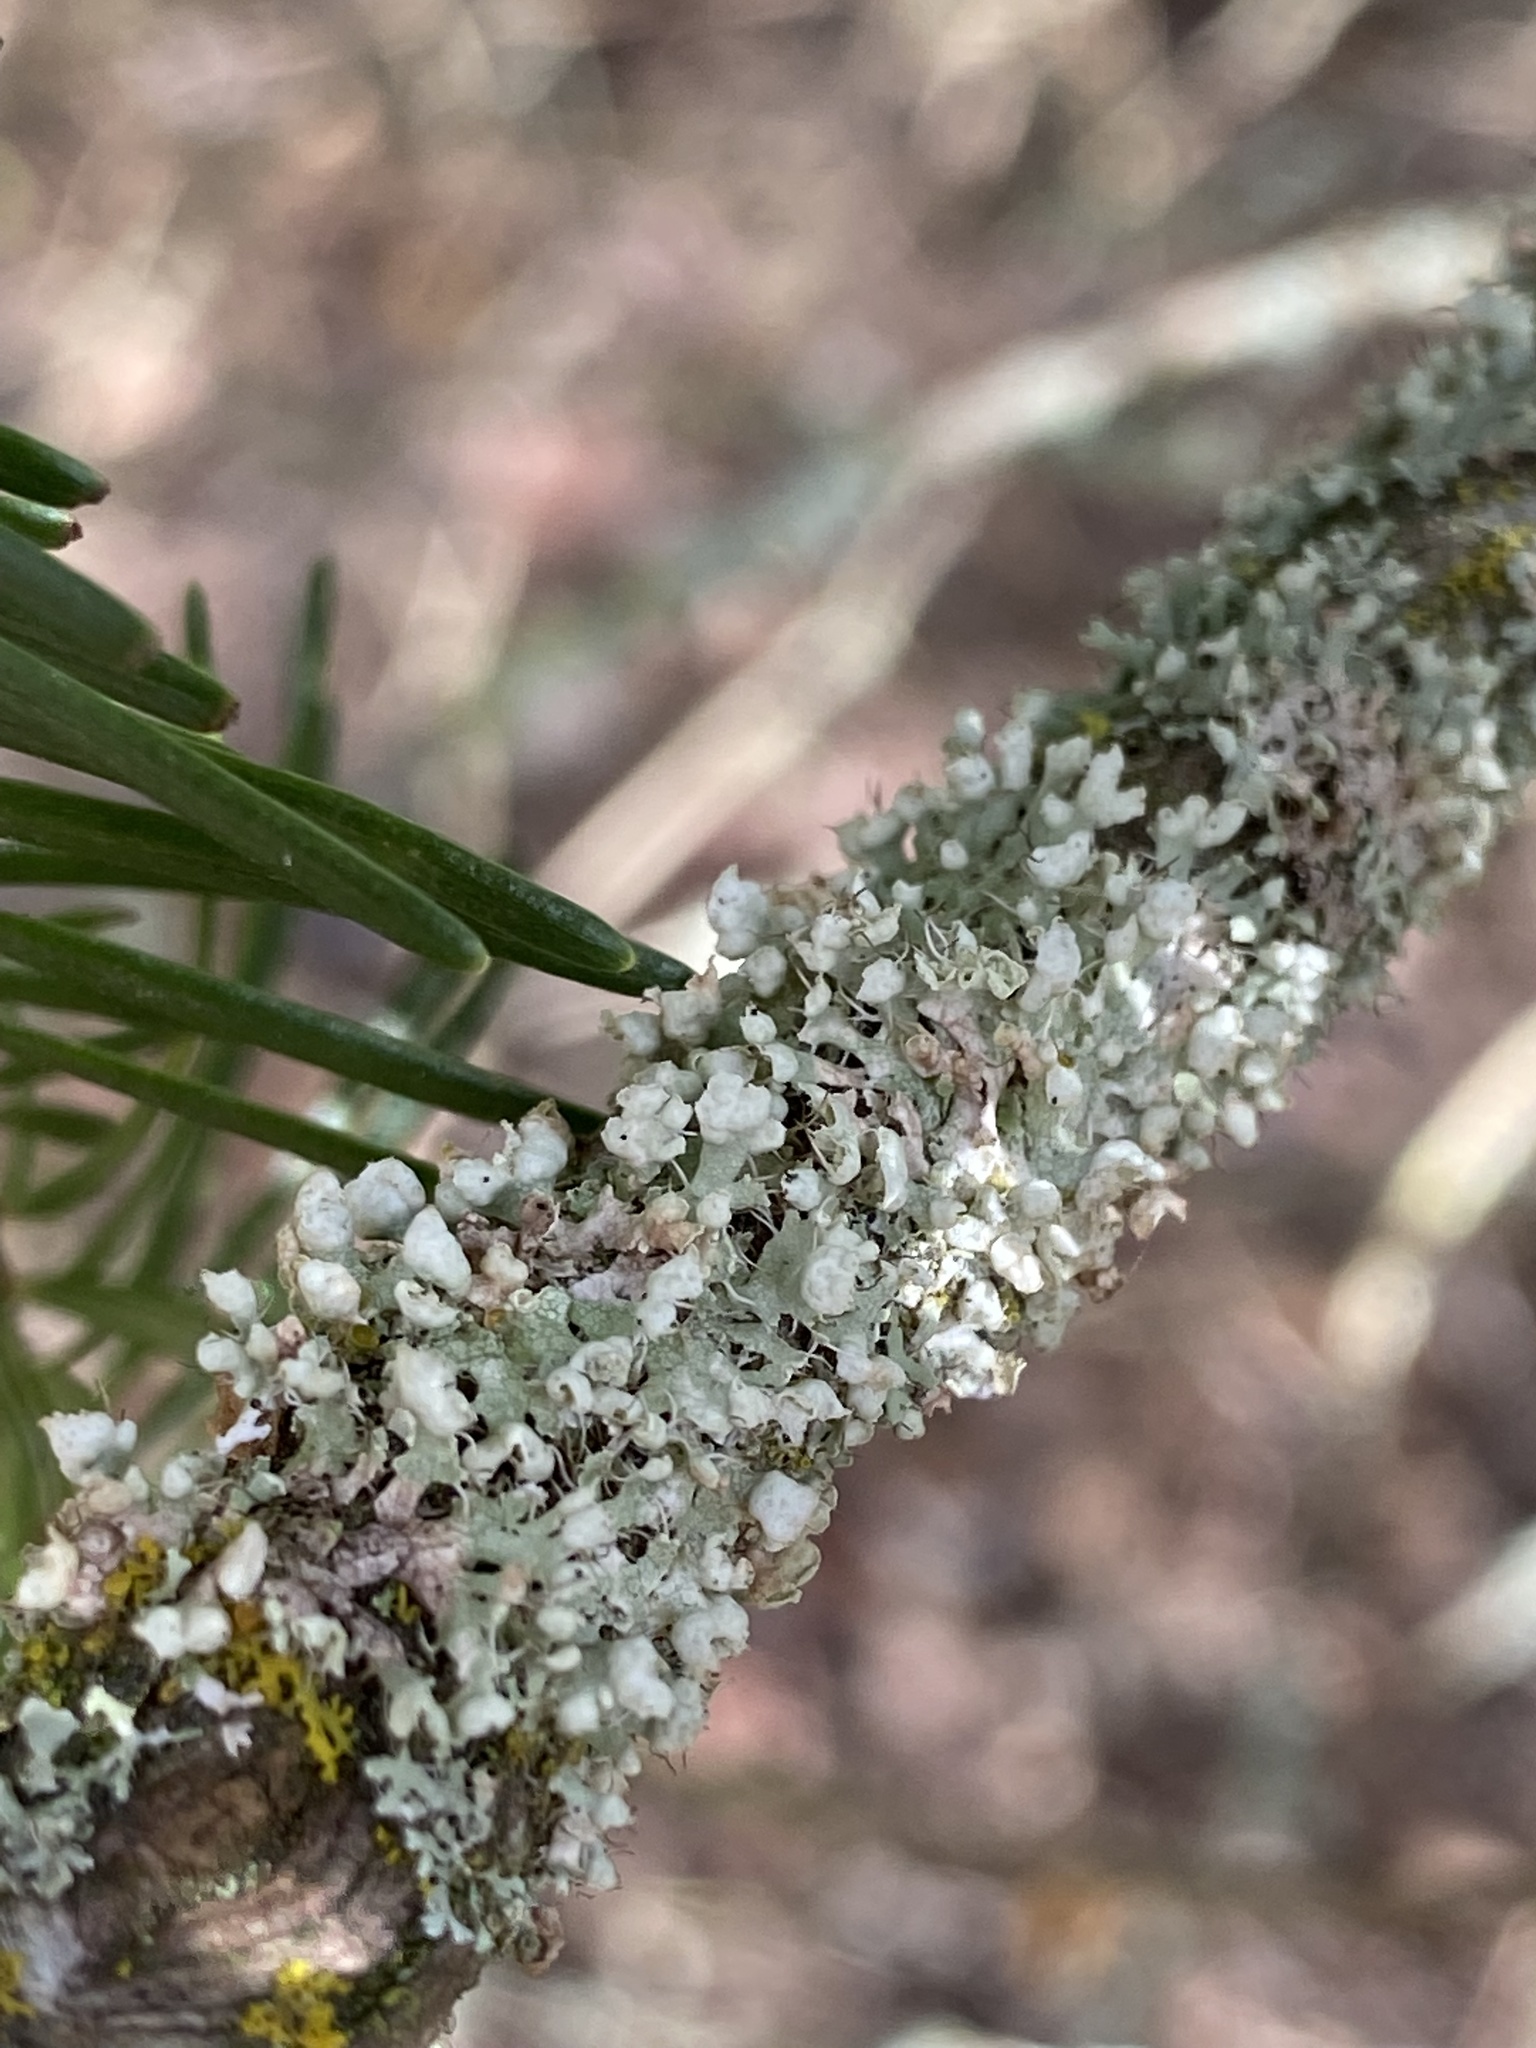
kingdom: Fungi
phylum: Ascomycota
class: Lecanoromycetes
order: Caliciales
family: Physciaceae
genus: Physcia
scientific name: Physcia adscendens
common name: Hooded rosette lichen
